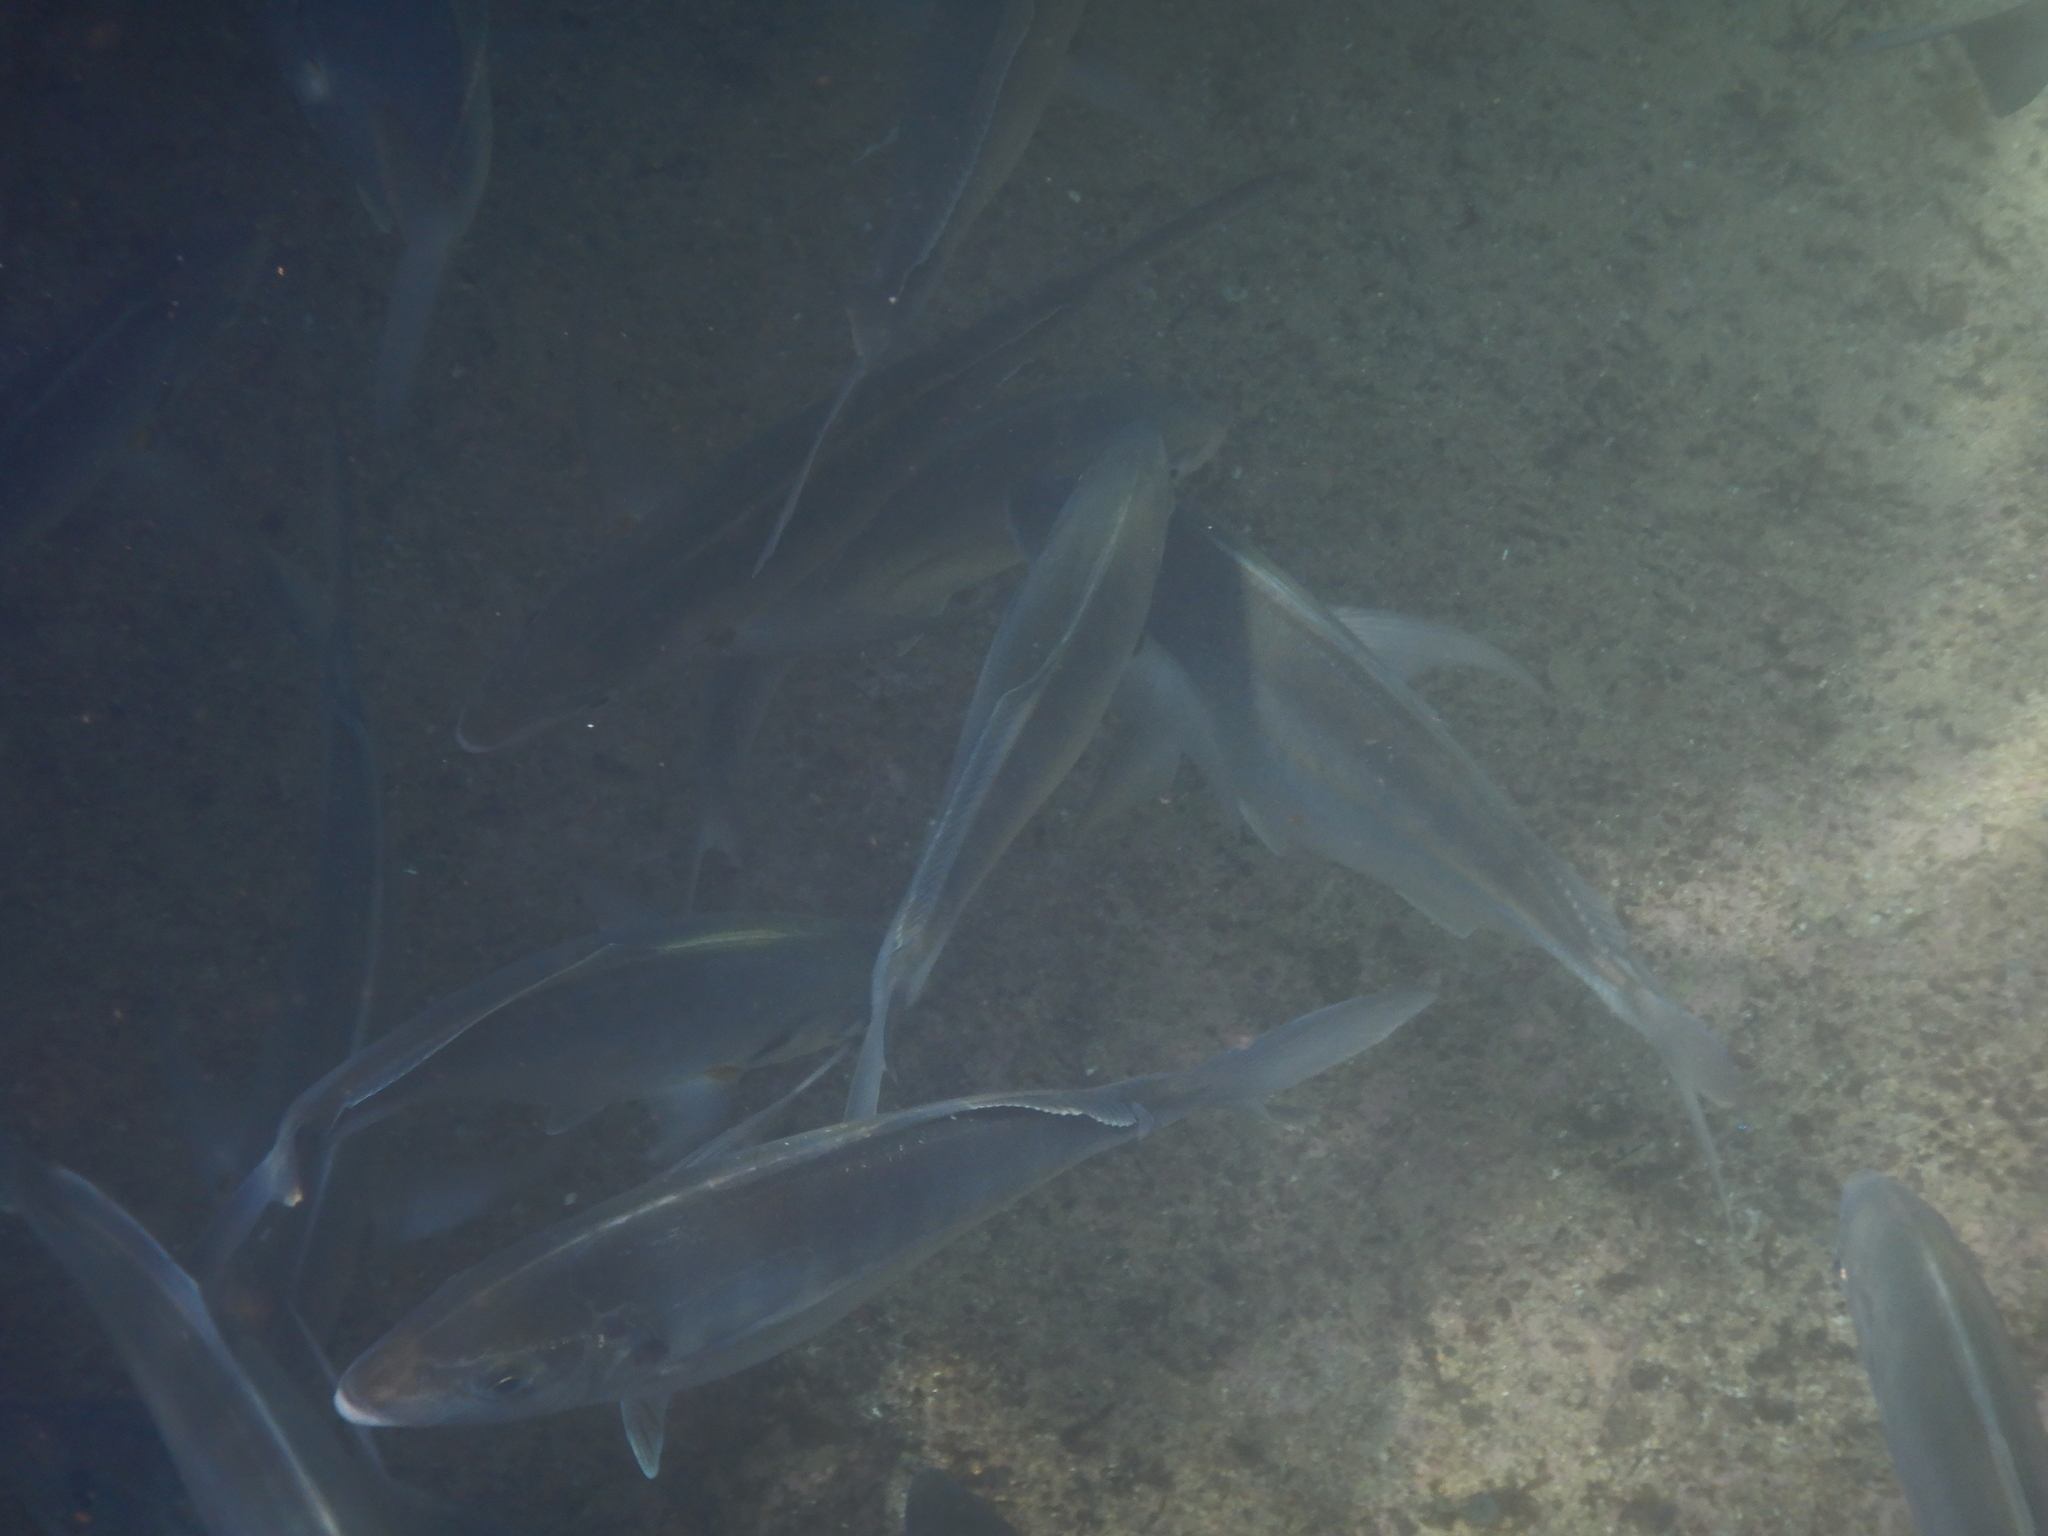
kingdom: Animalia
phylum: Chordata
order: Perciformes
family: Carangidae
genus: Pseudocaranx
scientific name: Pseudocaranx dentex
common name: White trevally
